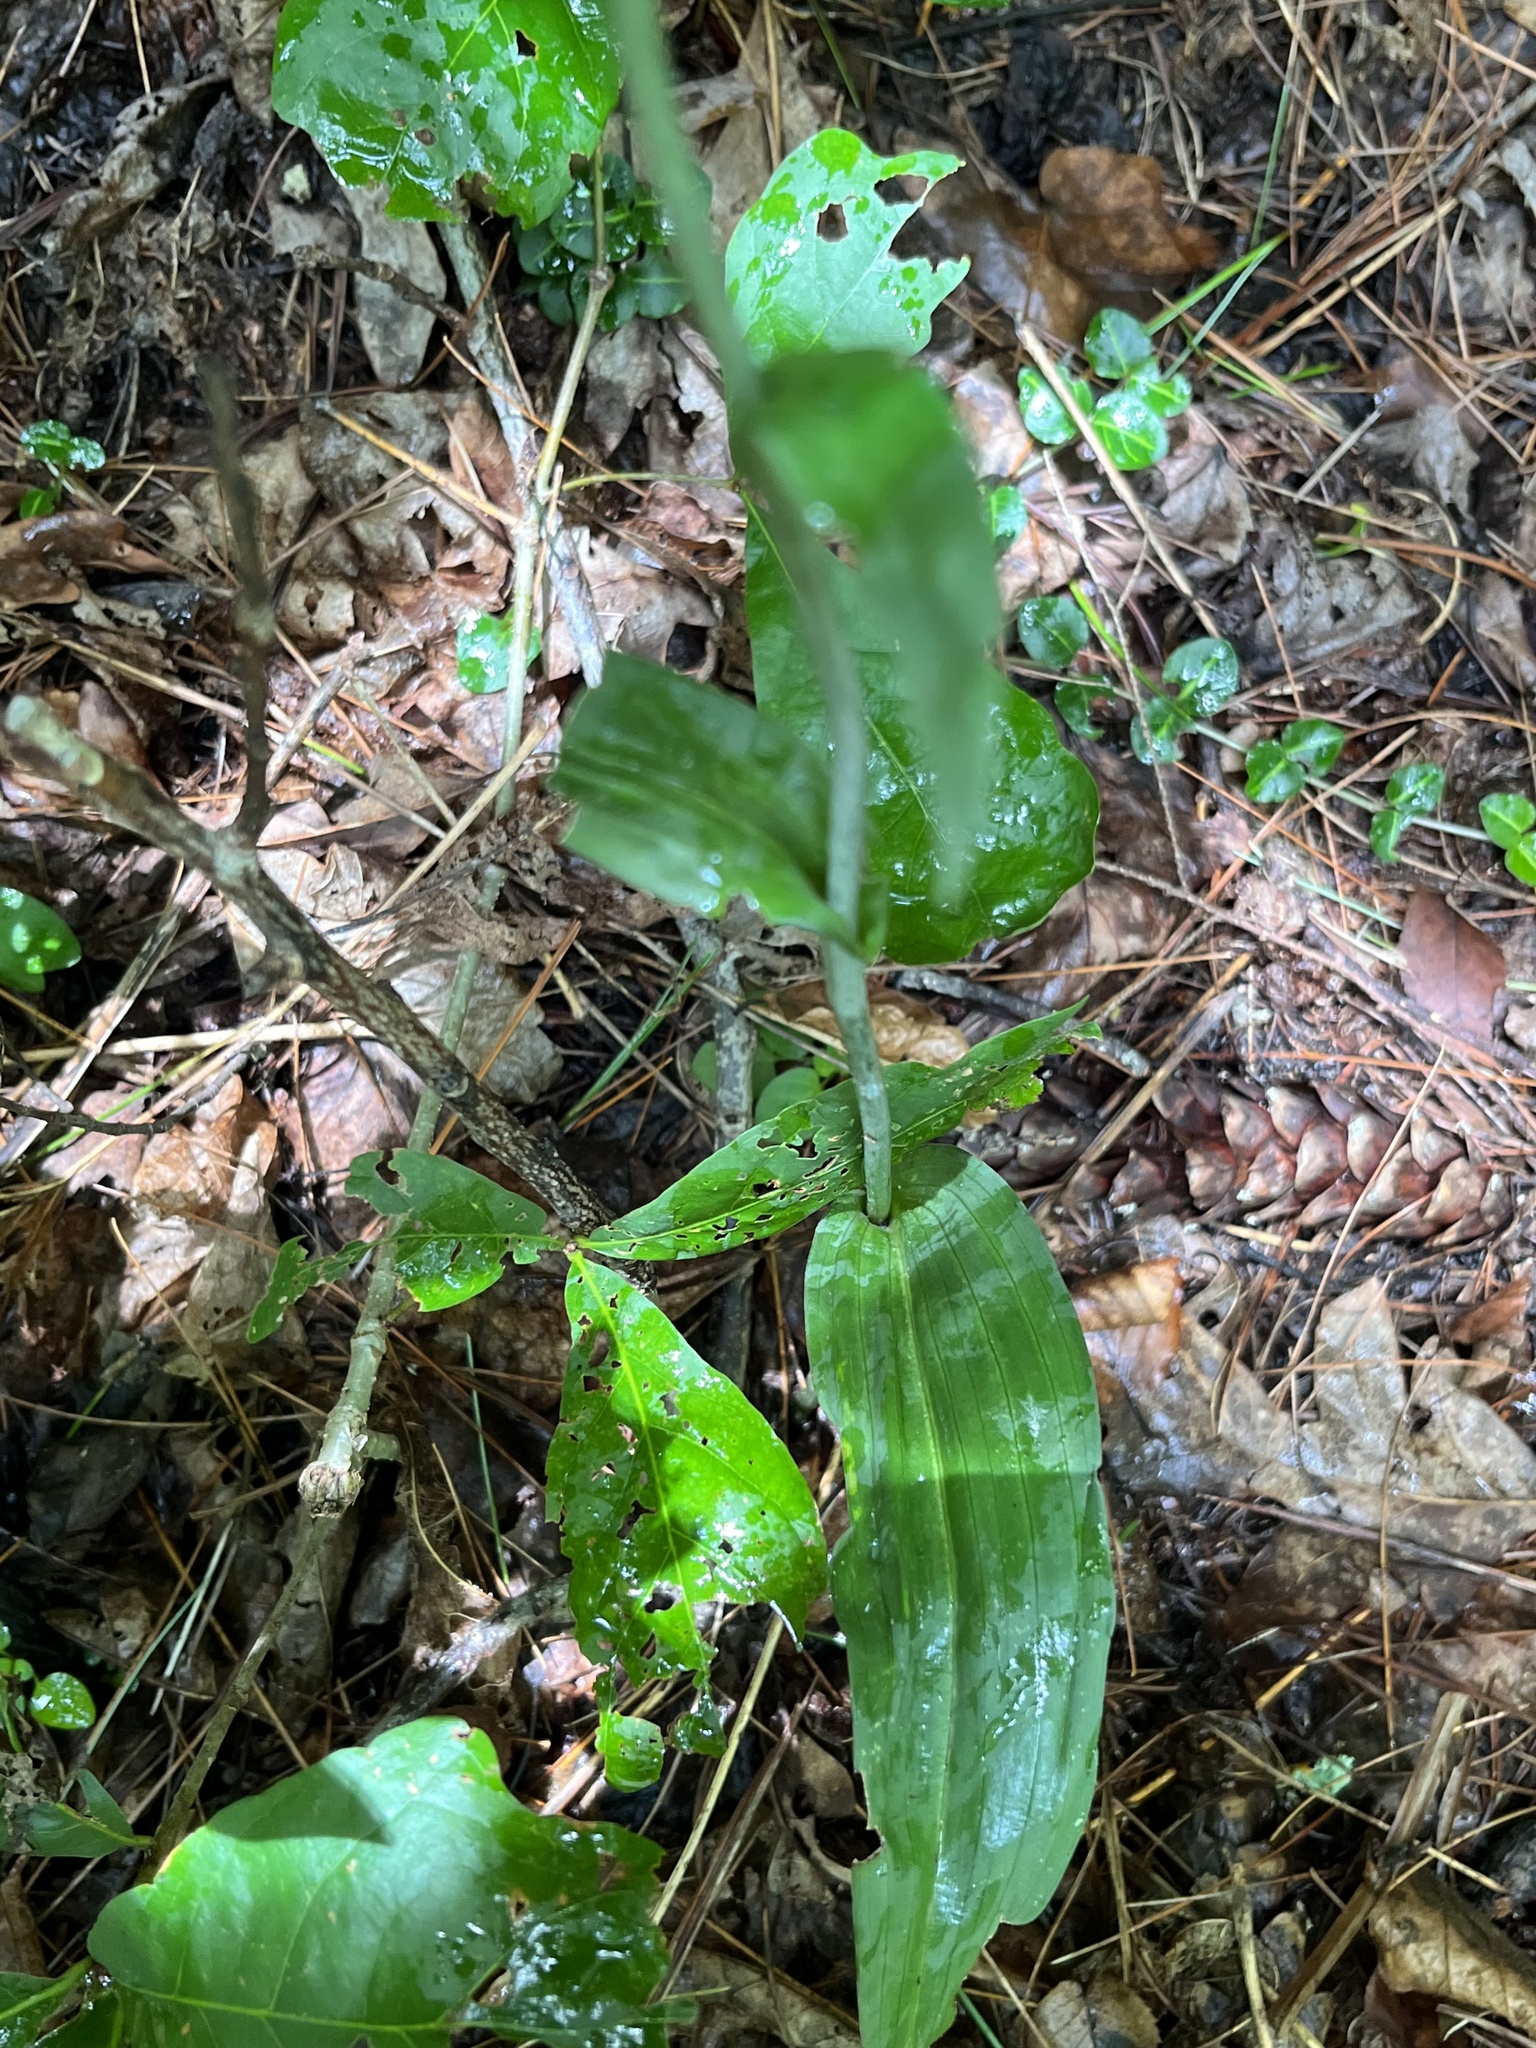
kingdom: Plantae
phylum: Tracheophyta
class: Liliopsida
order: Asparagales
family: Orchidaceae
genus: Platanthera
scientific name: Platanthera ciliaris
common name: Yellow fringed orchid
